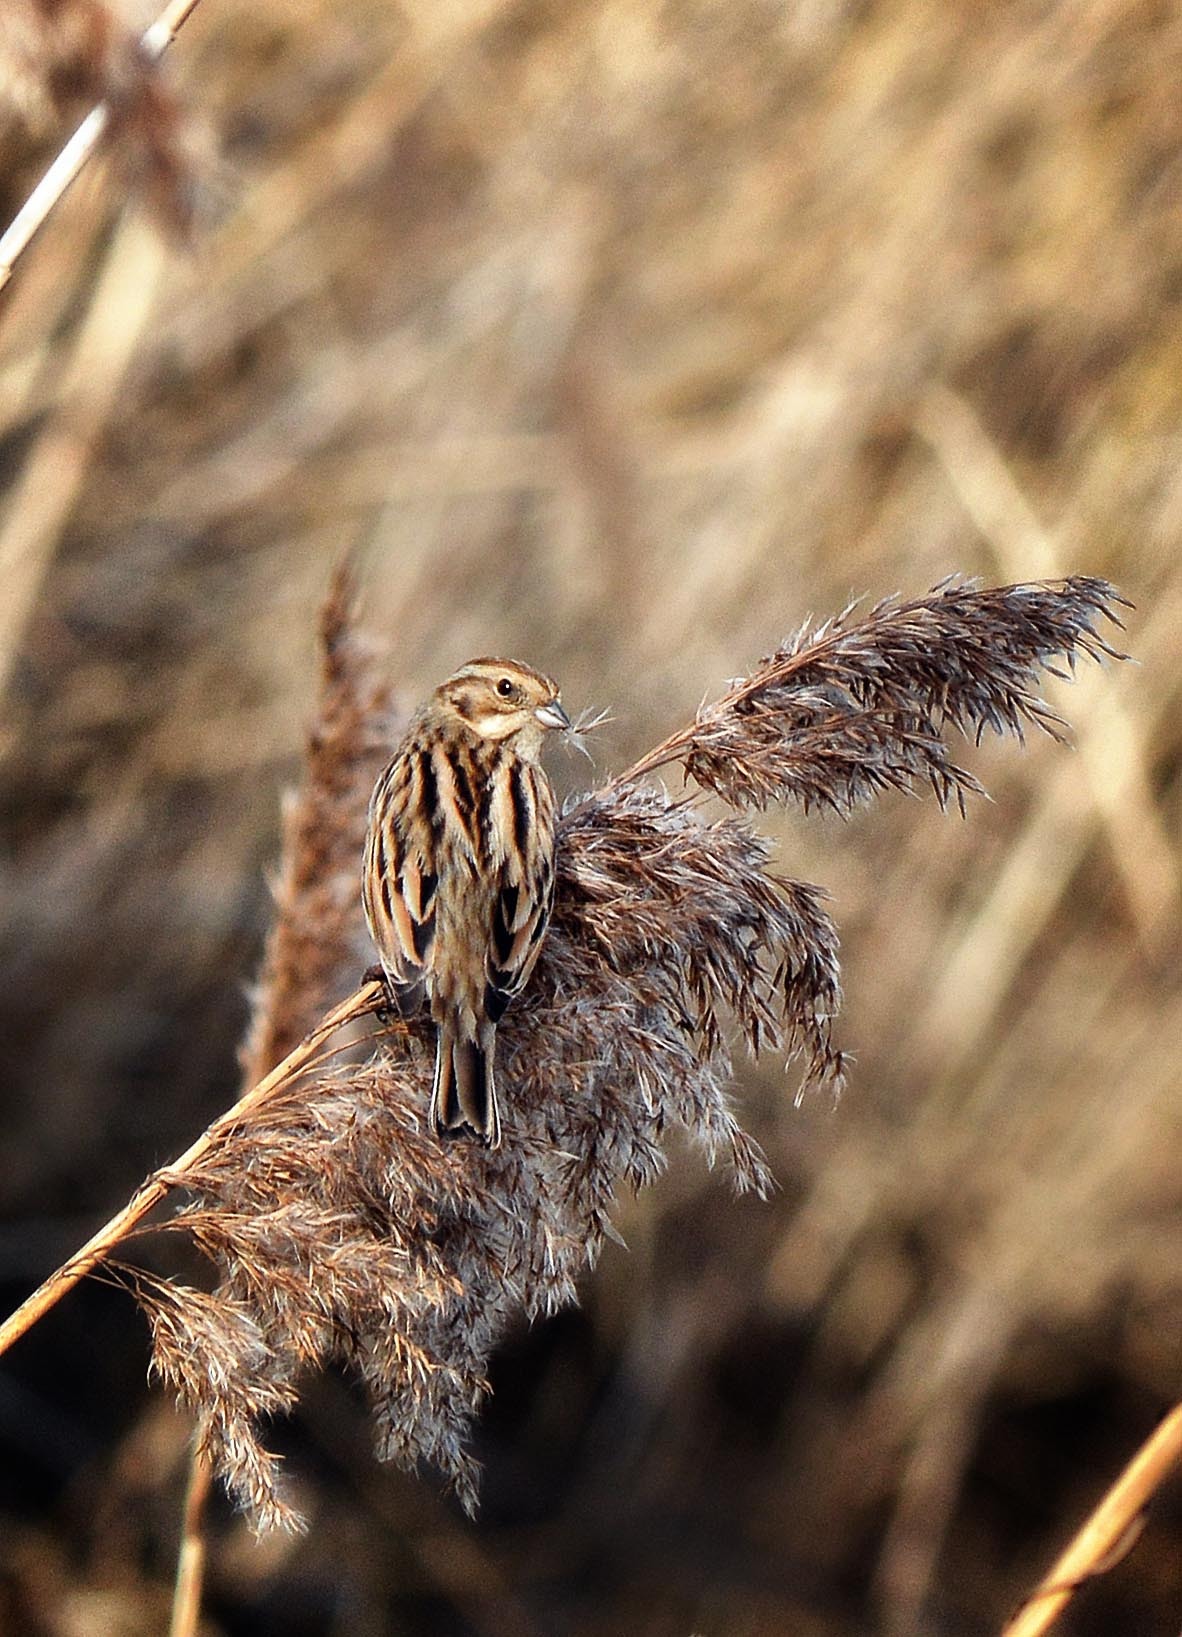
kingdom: Animalia
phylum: Chordata
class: Aves
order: Passeriformes
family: Emberizidae
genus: Emberiza
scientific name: Emberiza schoeniclus
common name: Reed bunting
